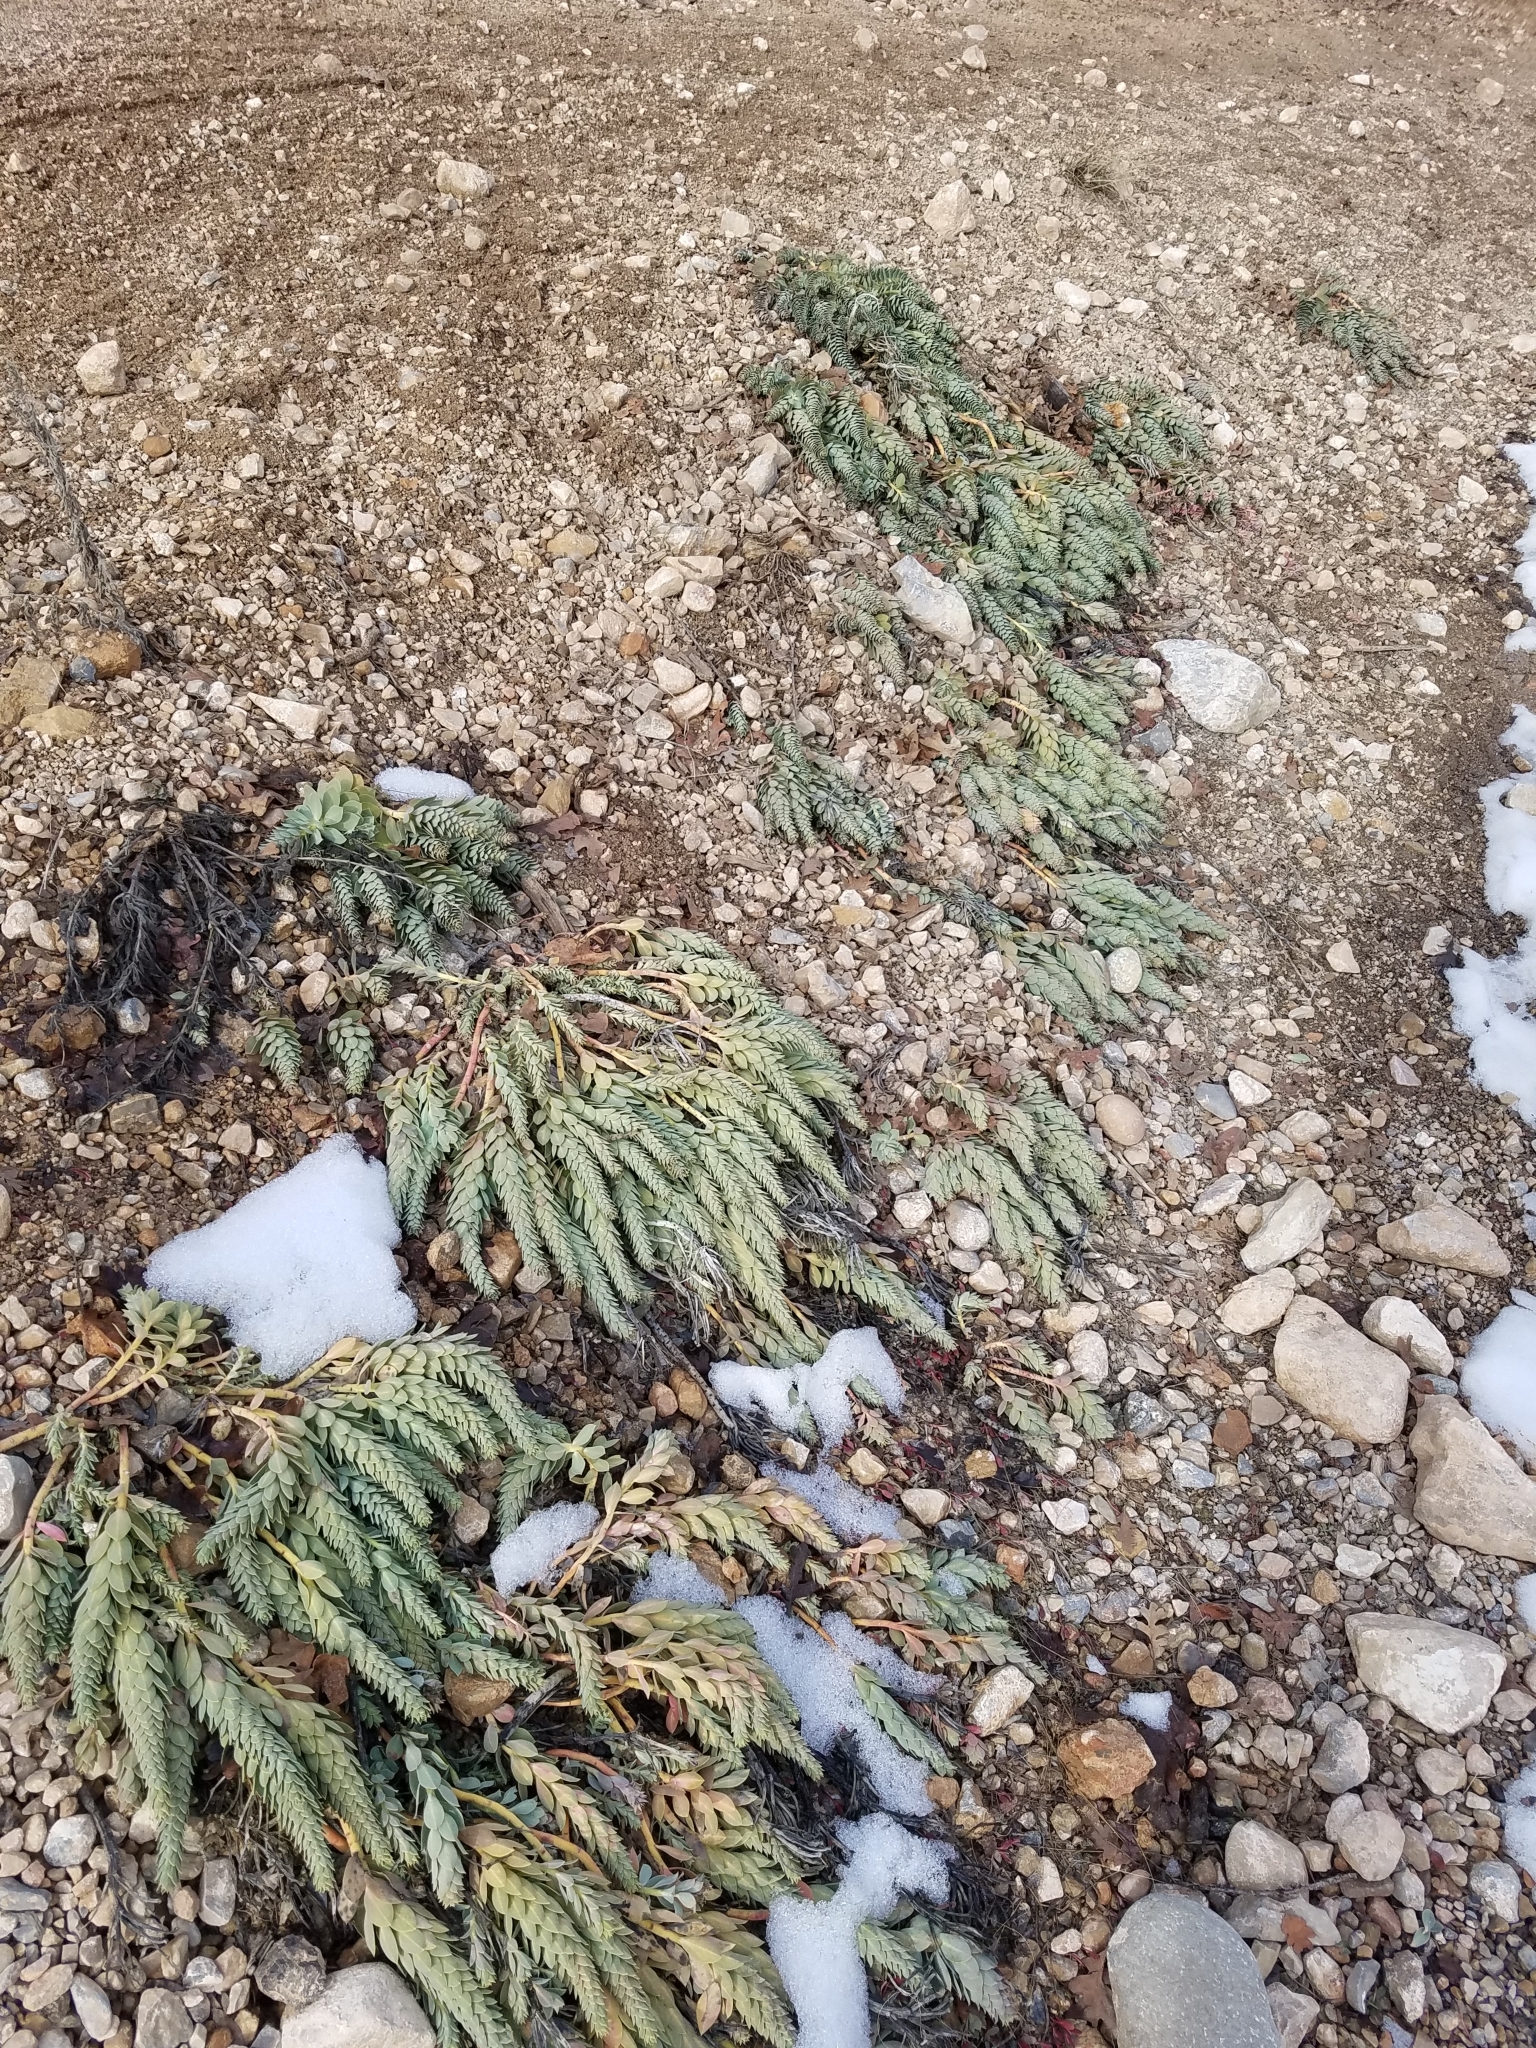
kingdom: Plantae
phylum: Tracheophyta
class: Magnoliopsida
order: Malpighiales
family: Euphorbiaceae
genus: Euphorbia
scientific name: Euphorbia myrsinites
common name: Myrtle spurge
